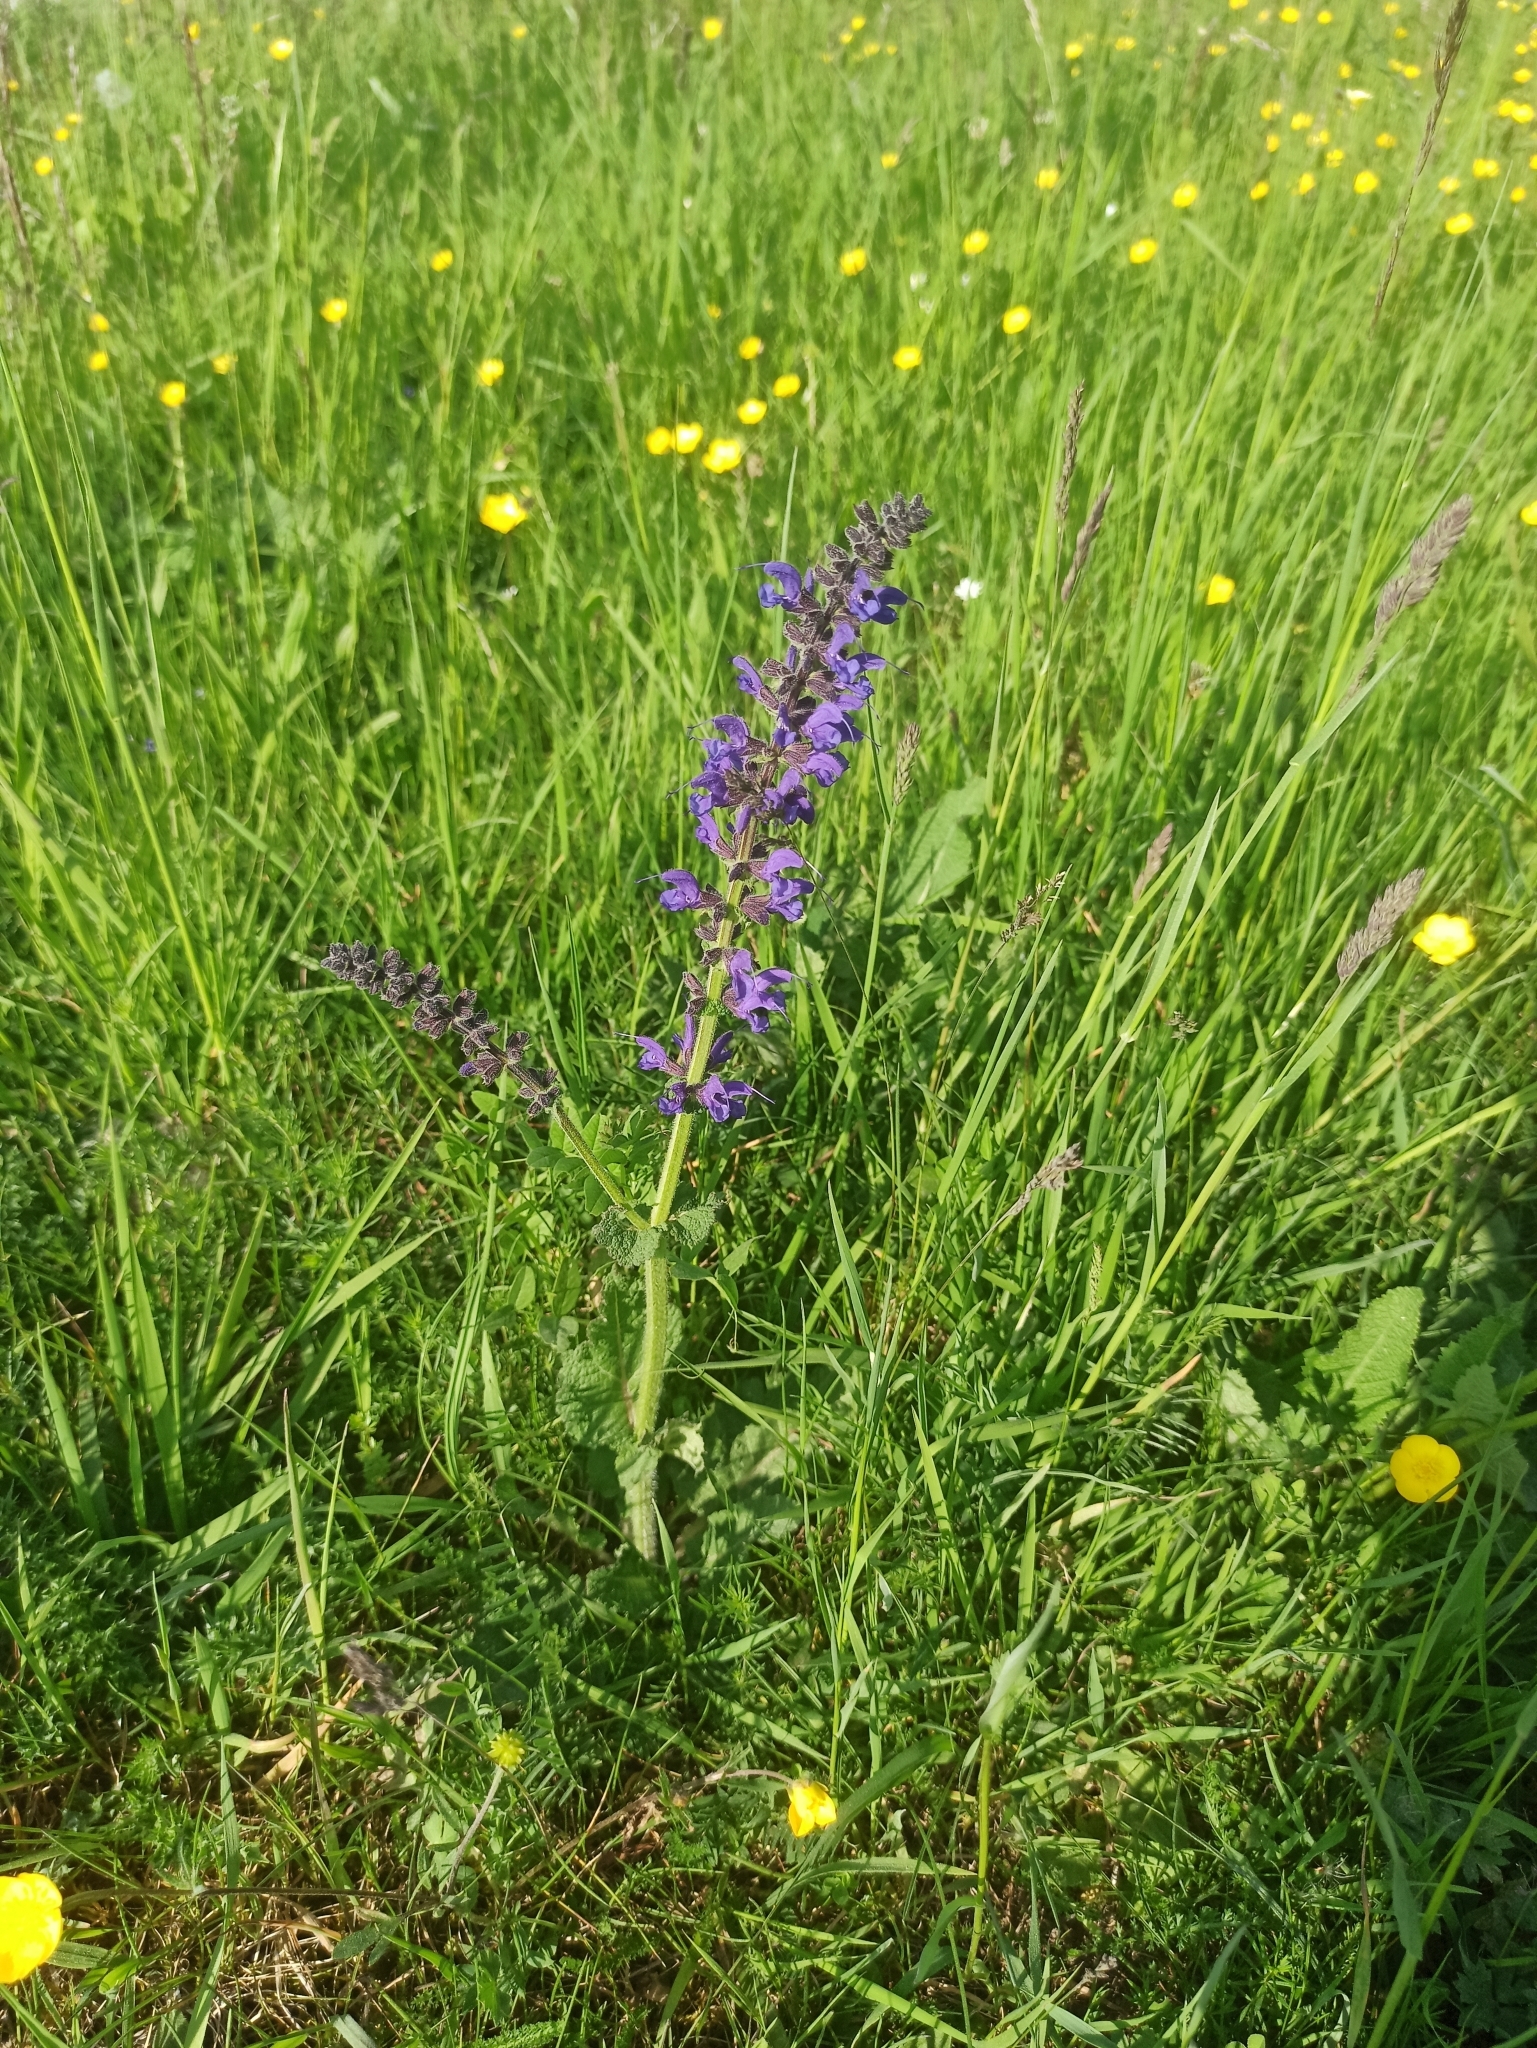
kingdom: Plantae
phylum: Tracheophyta
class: Magnoliopsida
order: Lamiales
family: Lamiaceae
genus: Salvia
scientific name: Salvia pratensis
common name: Meadow sage
